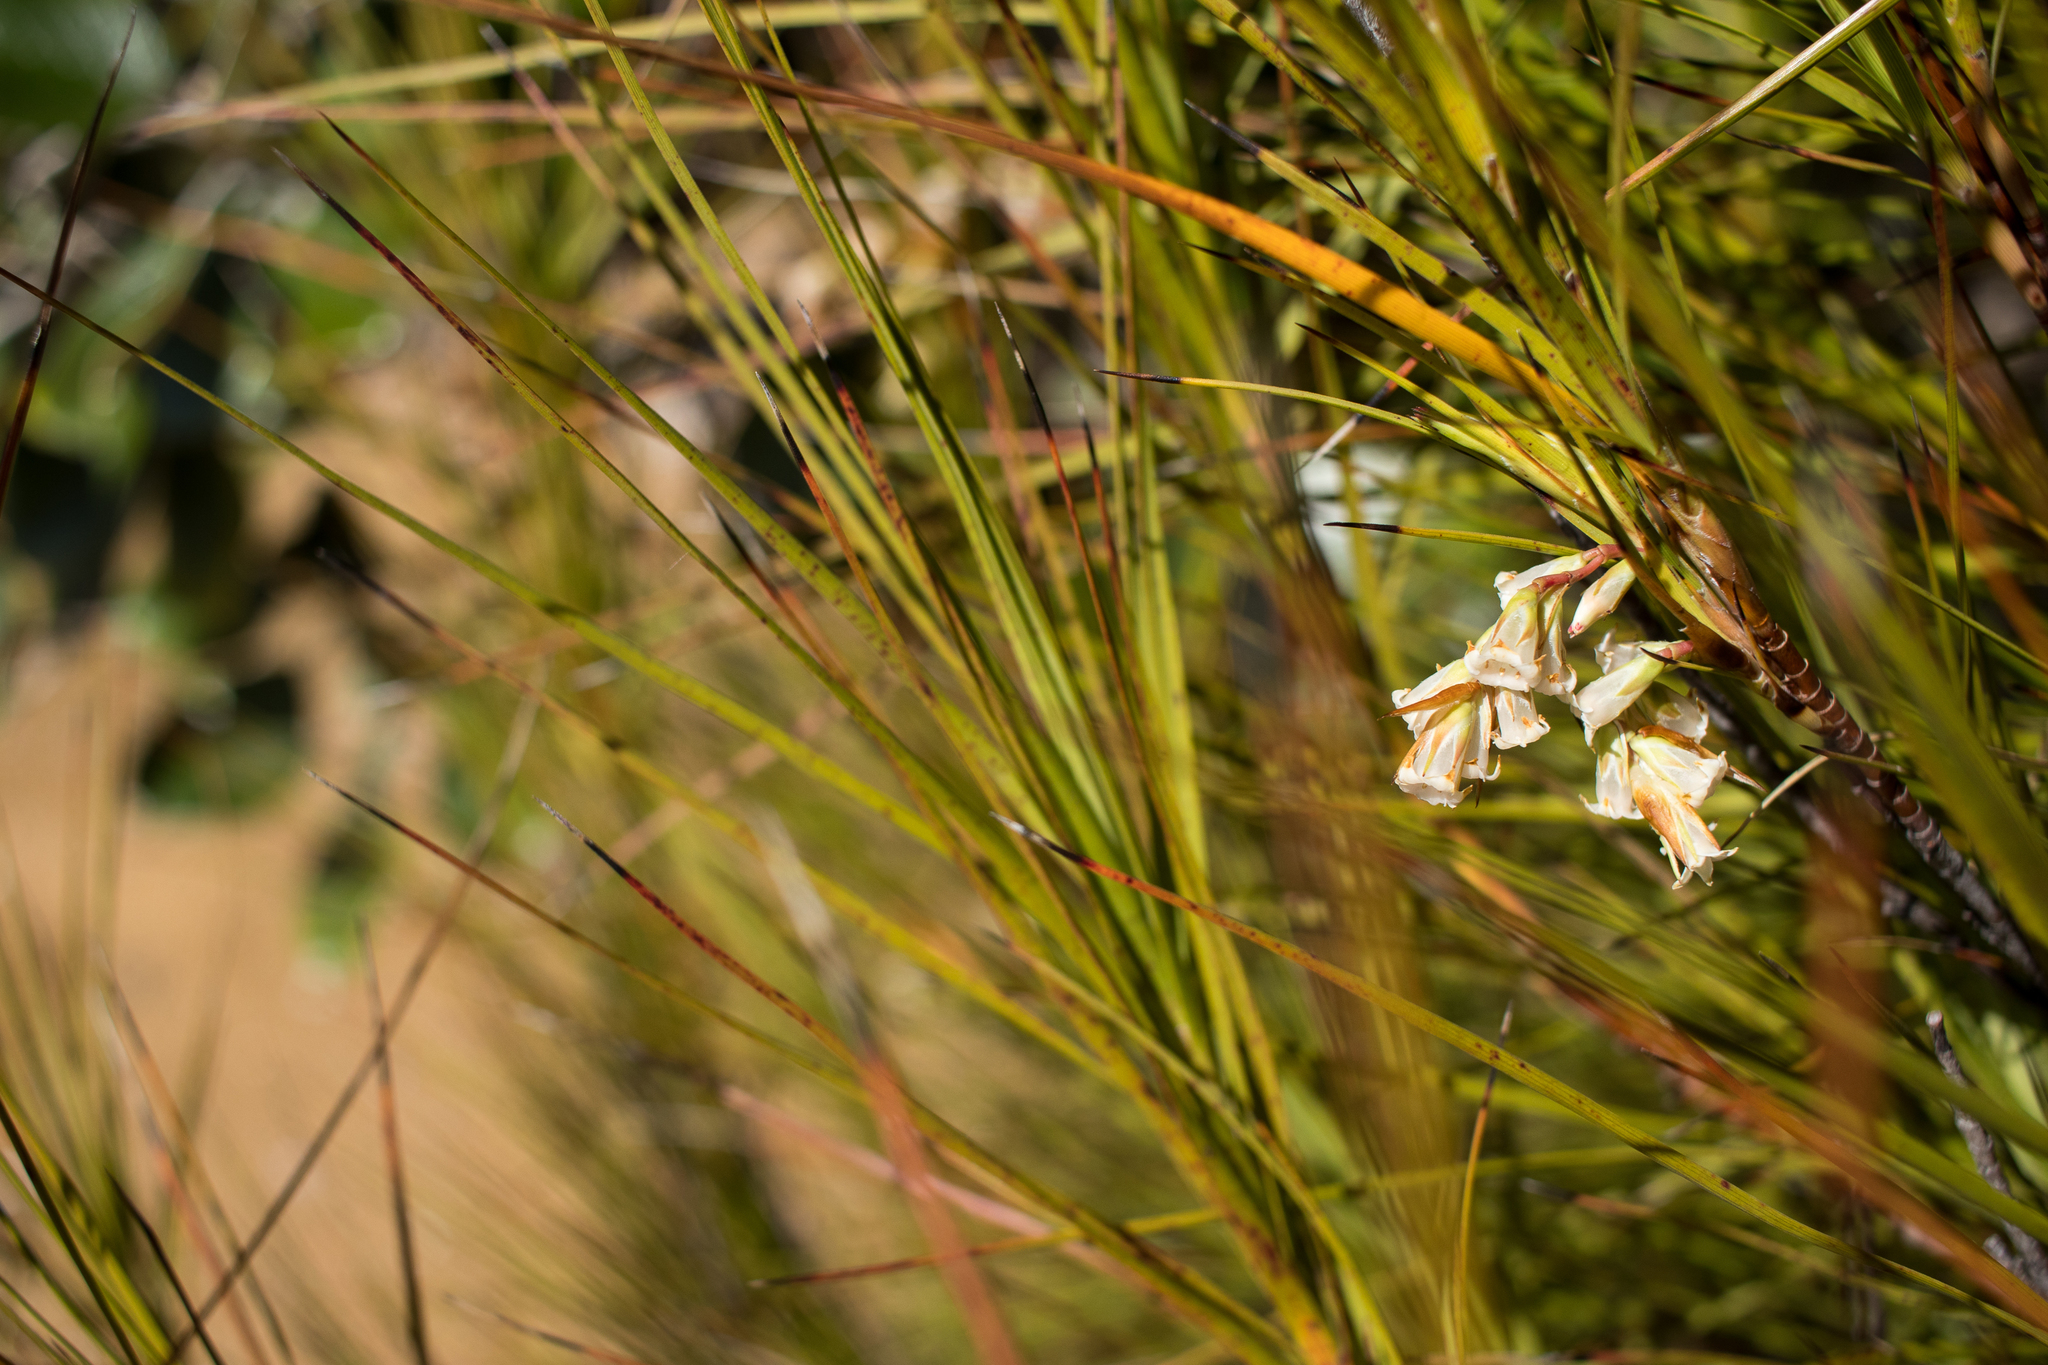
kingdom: Plantae
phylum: Tracheophyta
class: Magnoliopsida
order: Ericales
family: Ericaceae
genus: Dracophyllum
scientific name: Dracophyllum longifolium
